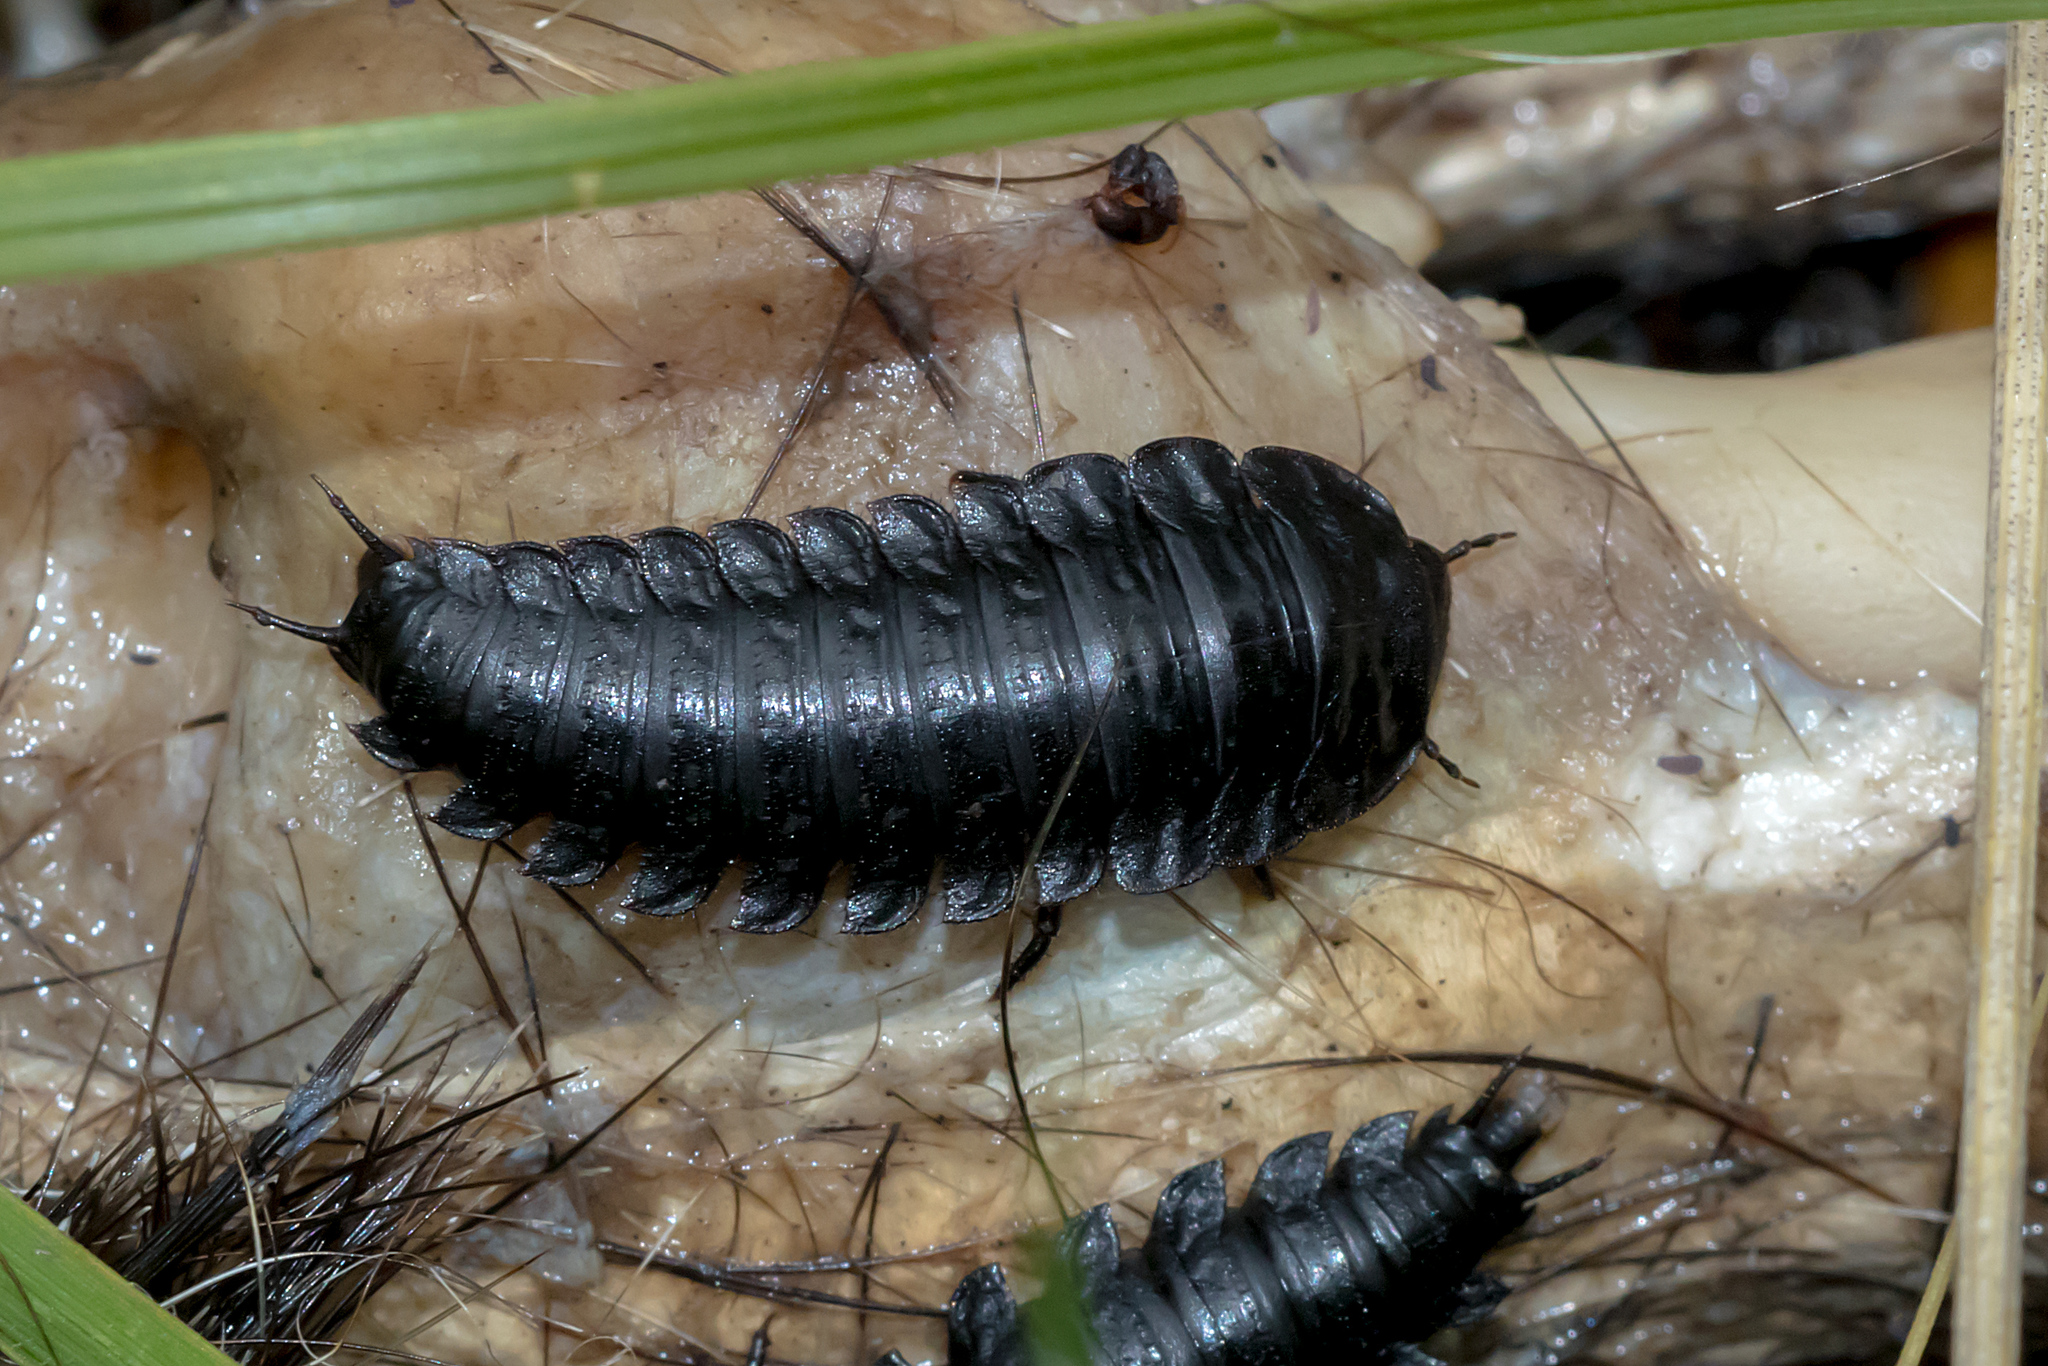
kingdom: Animalia
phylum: Arthropoda
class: Insecta
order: Coleoptera
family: Staphylinidae
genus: Ptomaphila
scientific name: Ptomaphila lacrymosa
